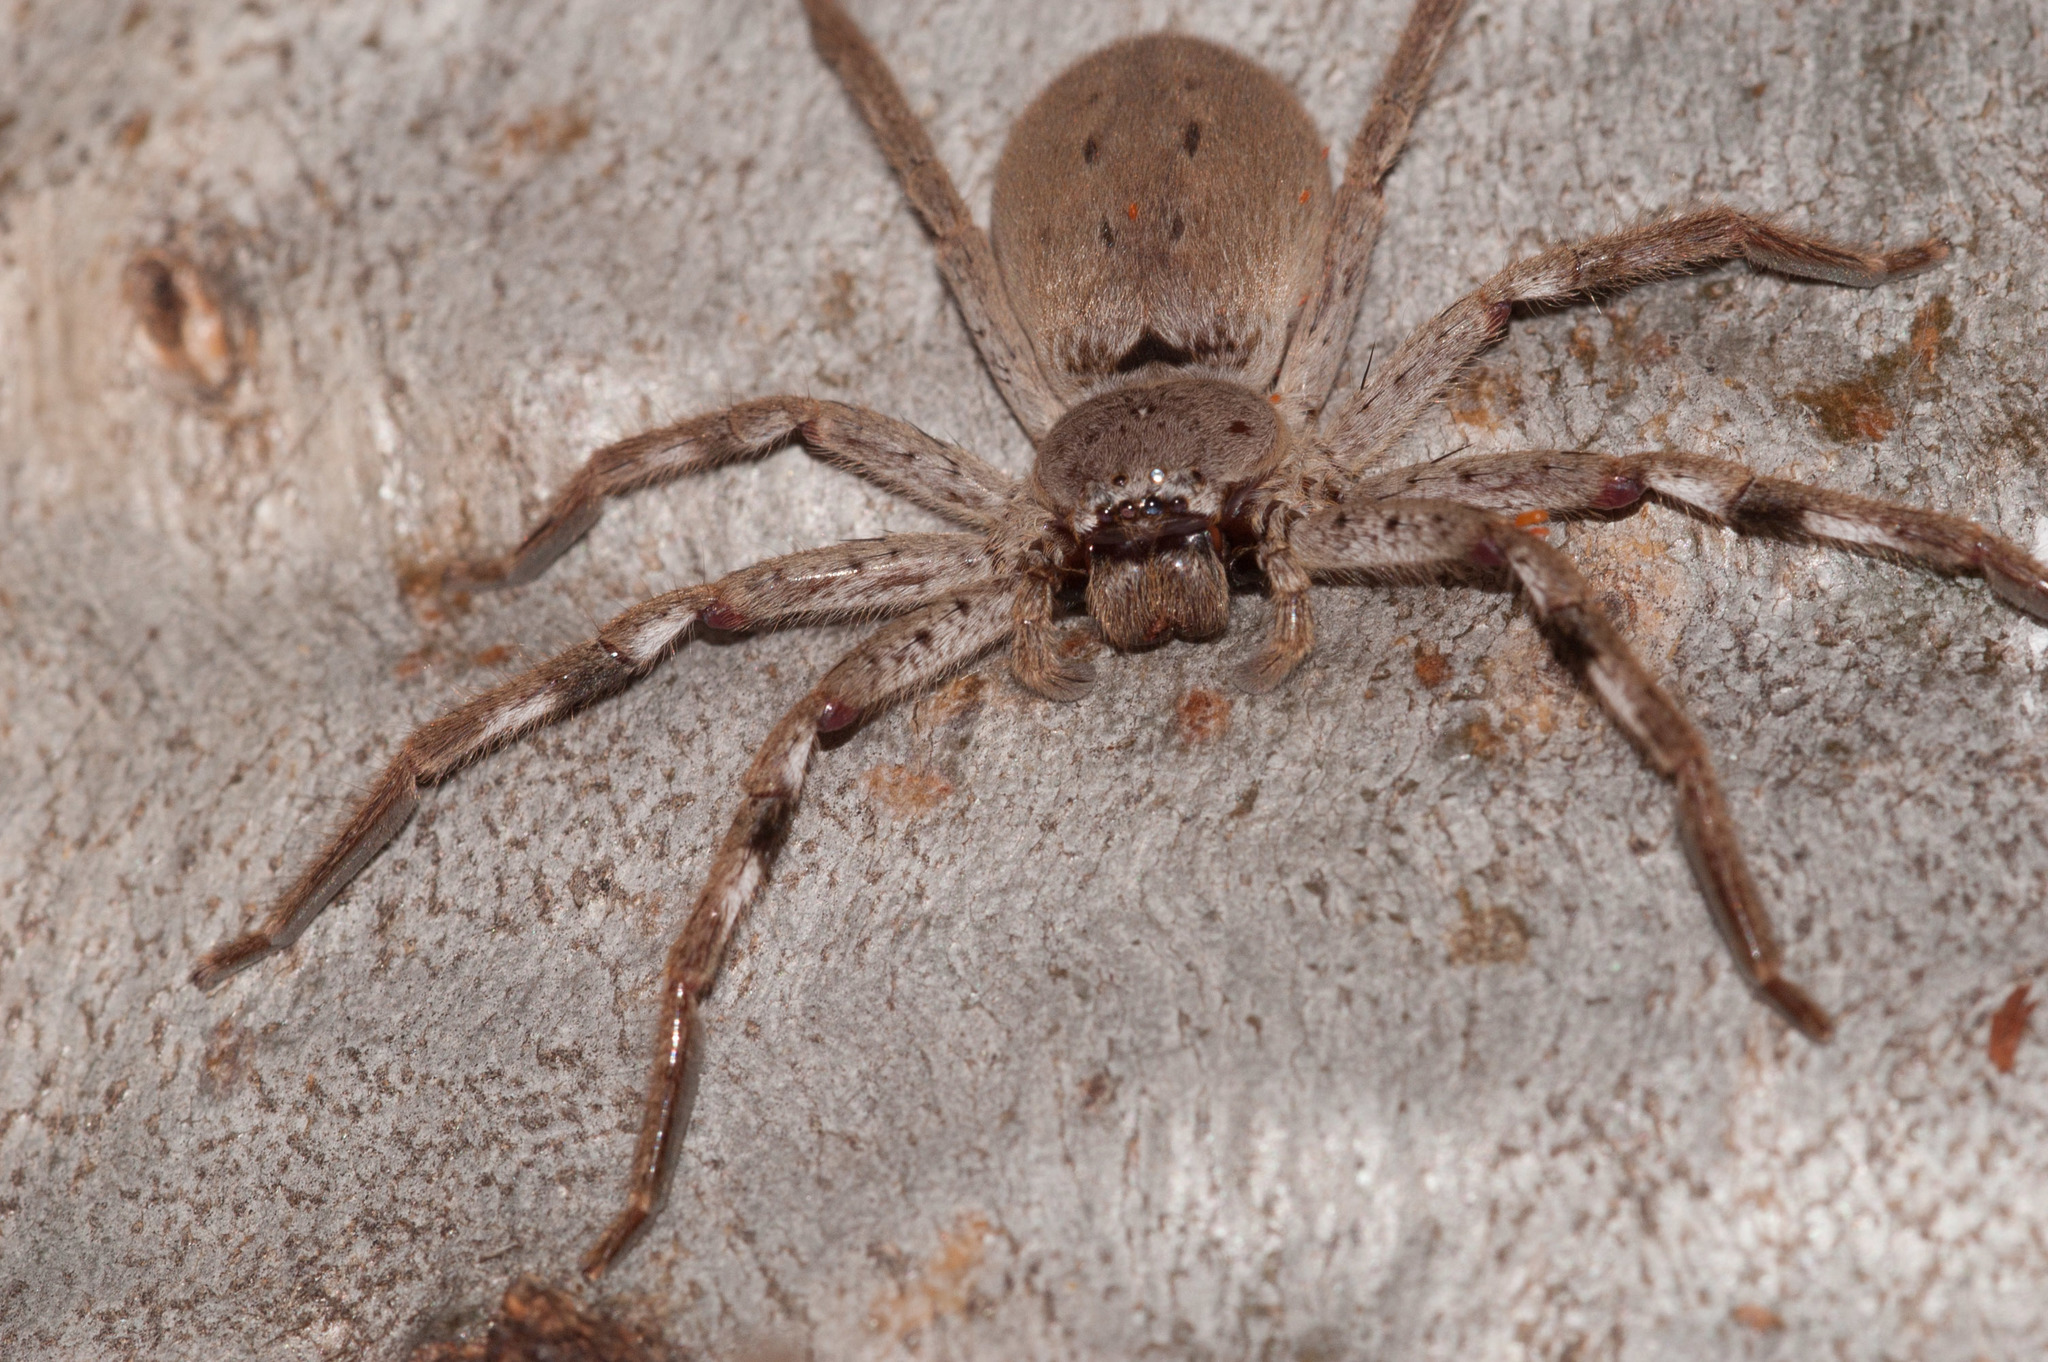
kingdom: Animalia
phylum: Arthropoda
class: Arachnida
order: Araneae
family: Sparassidae
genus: Isopedella
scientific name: Isopedella leai
